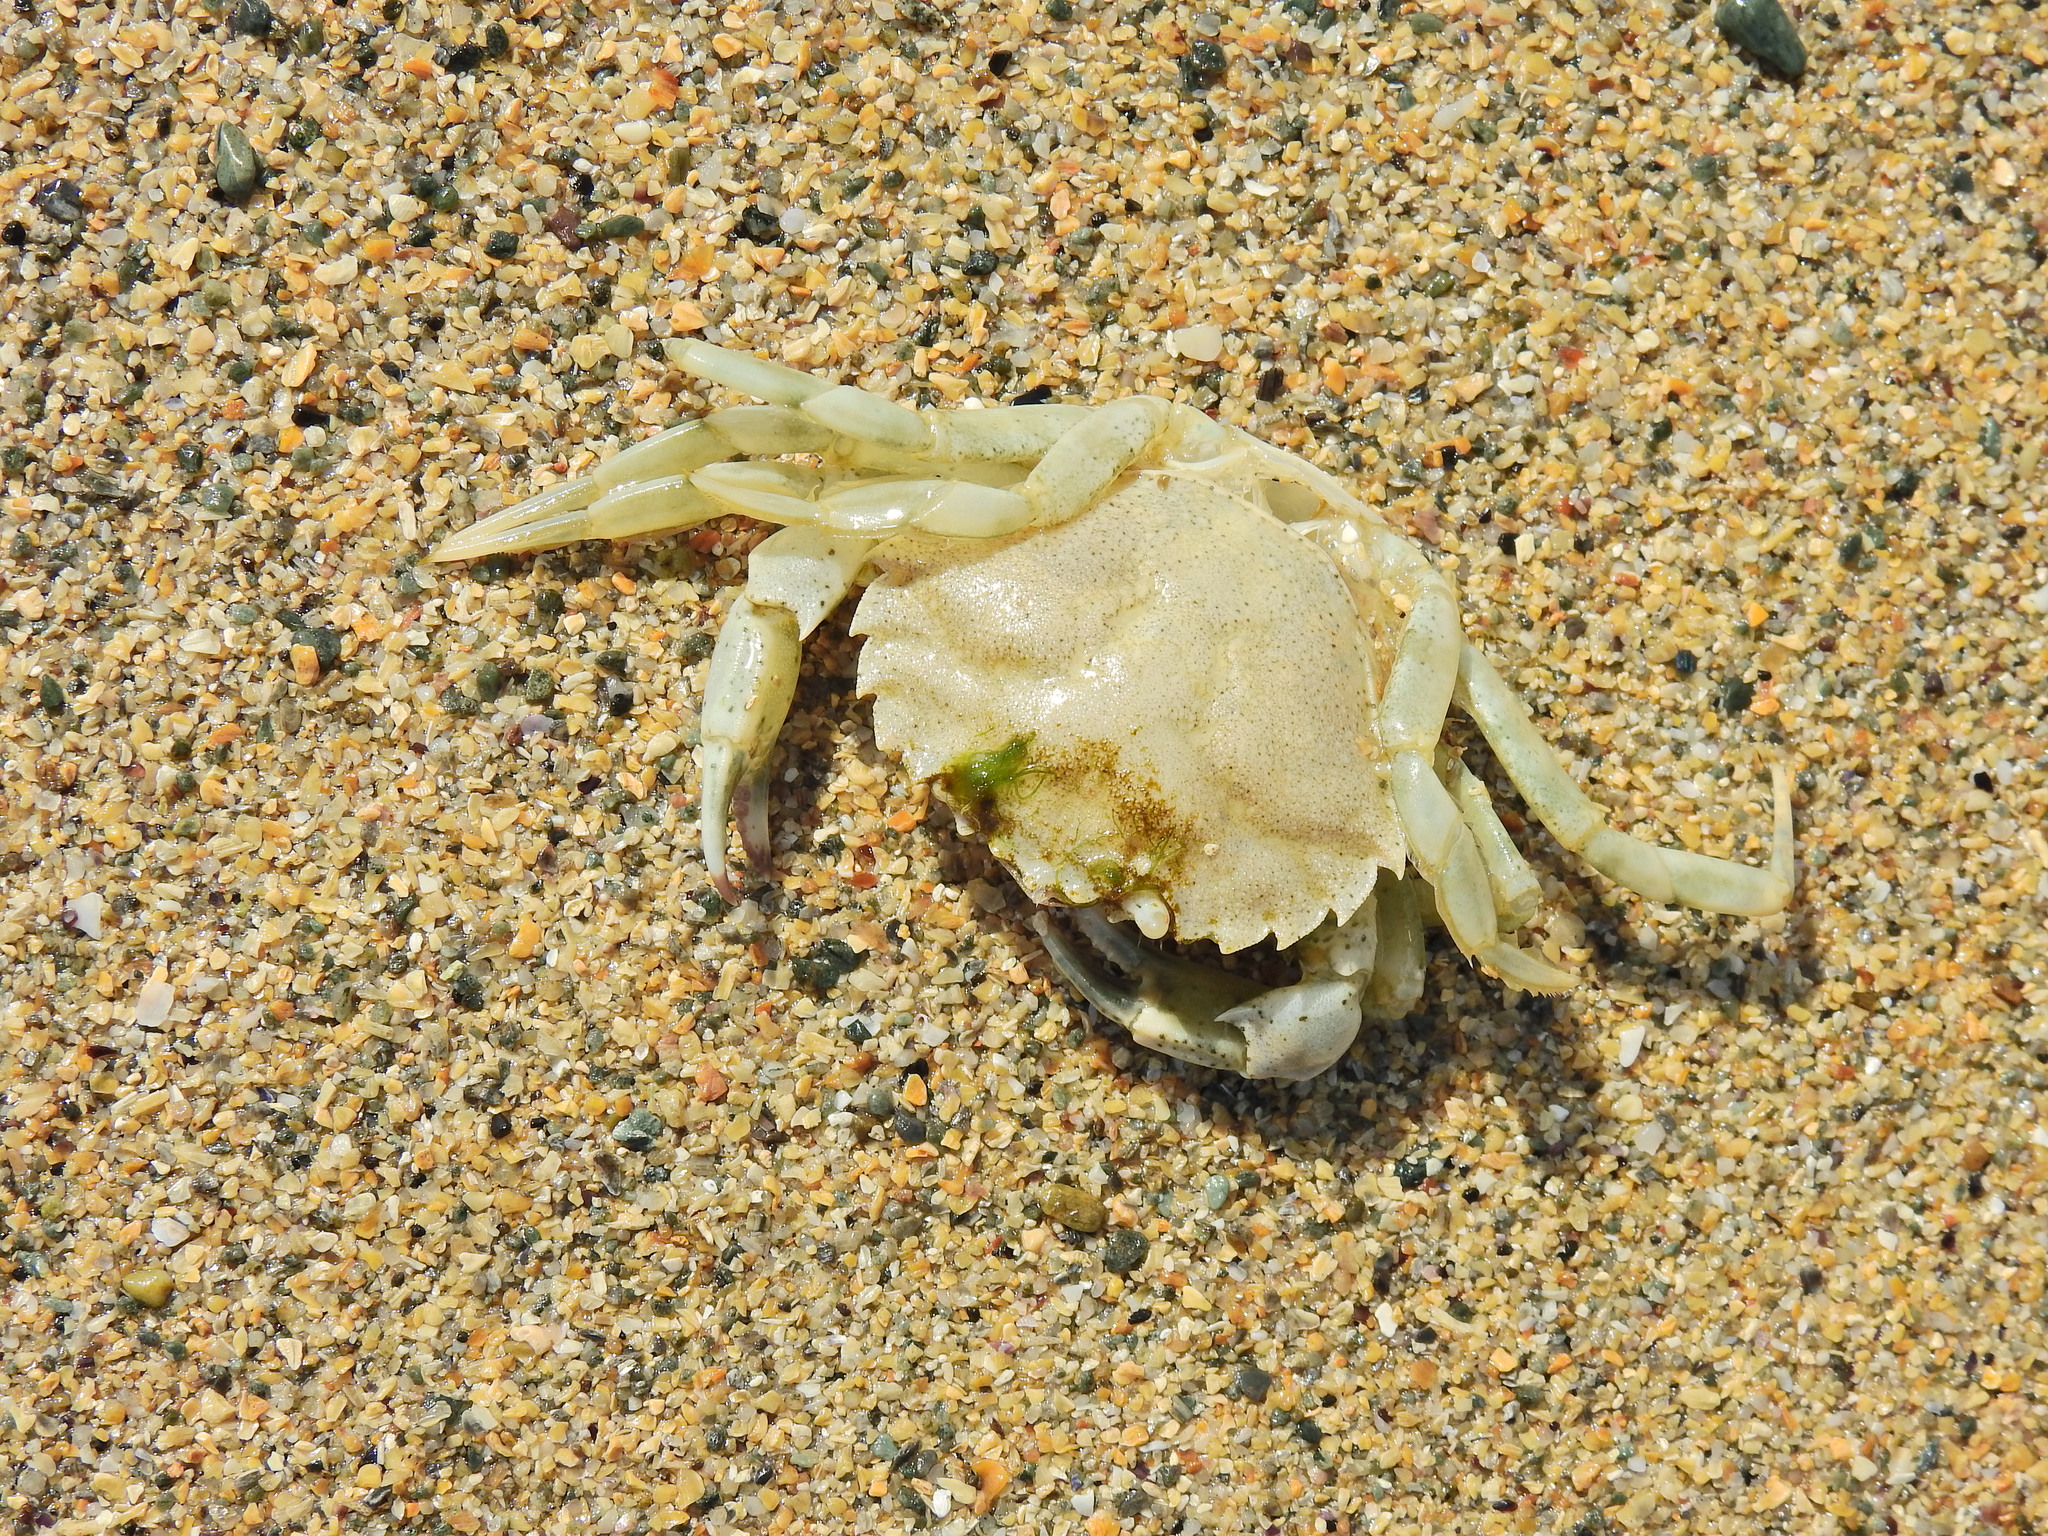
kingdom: Animalia
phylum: Arthropoda
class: Malacostraca
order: Decapoda
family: Carcinidae
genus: Carcinus
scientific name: Carcinus maenas
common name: European green crab
